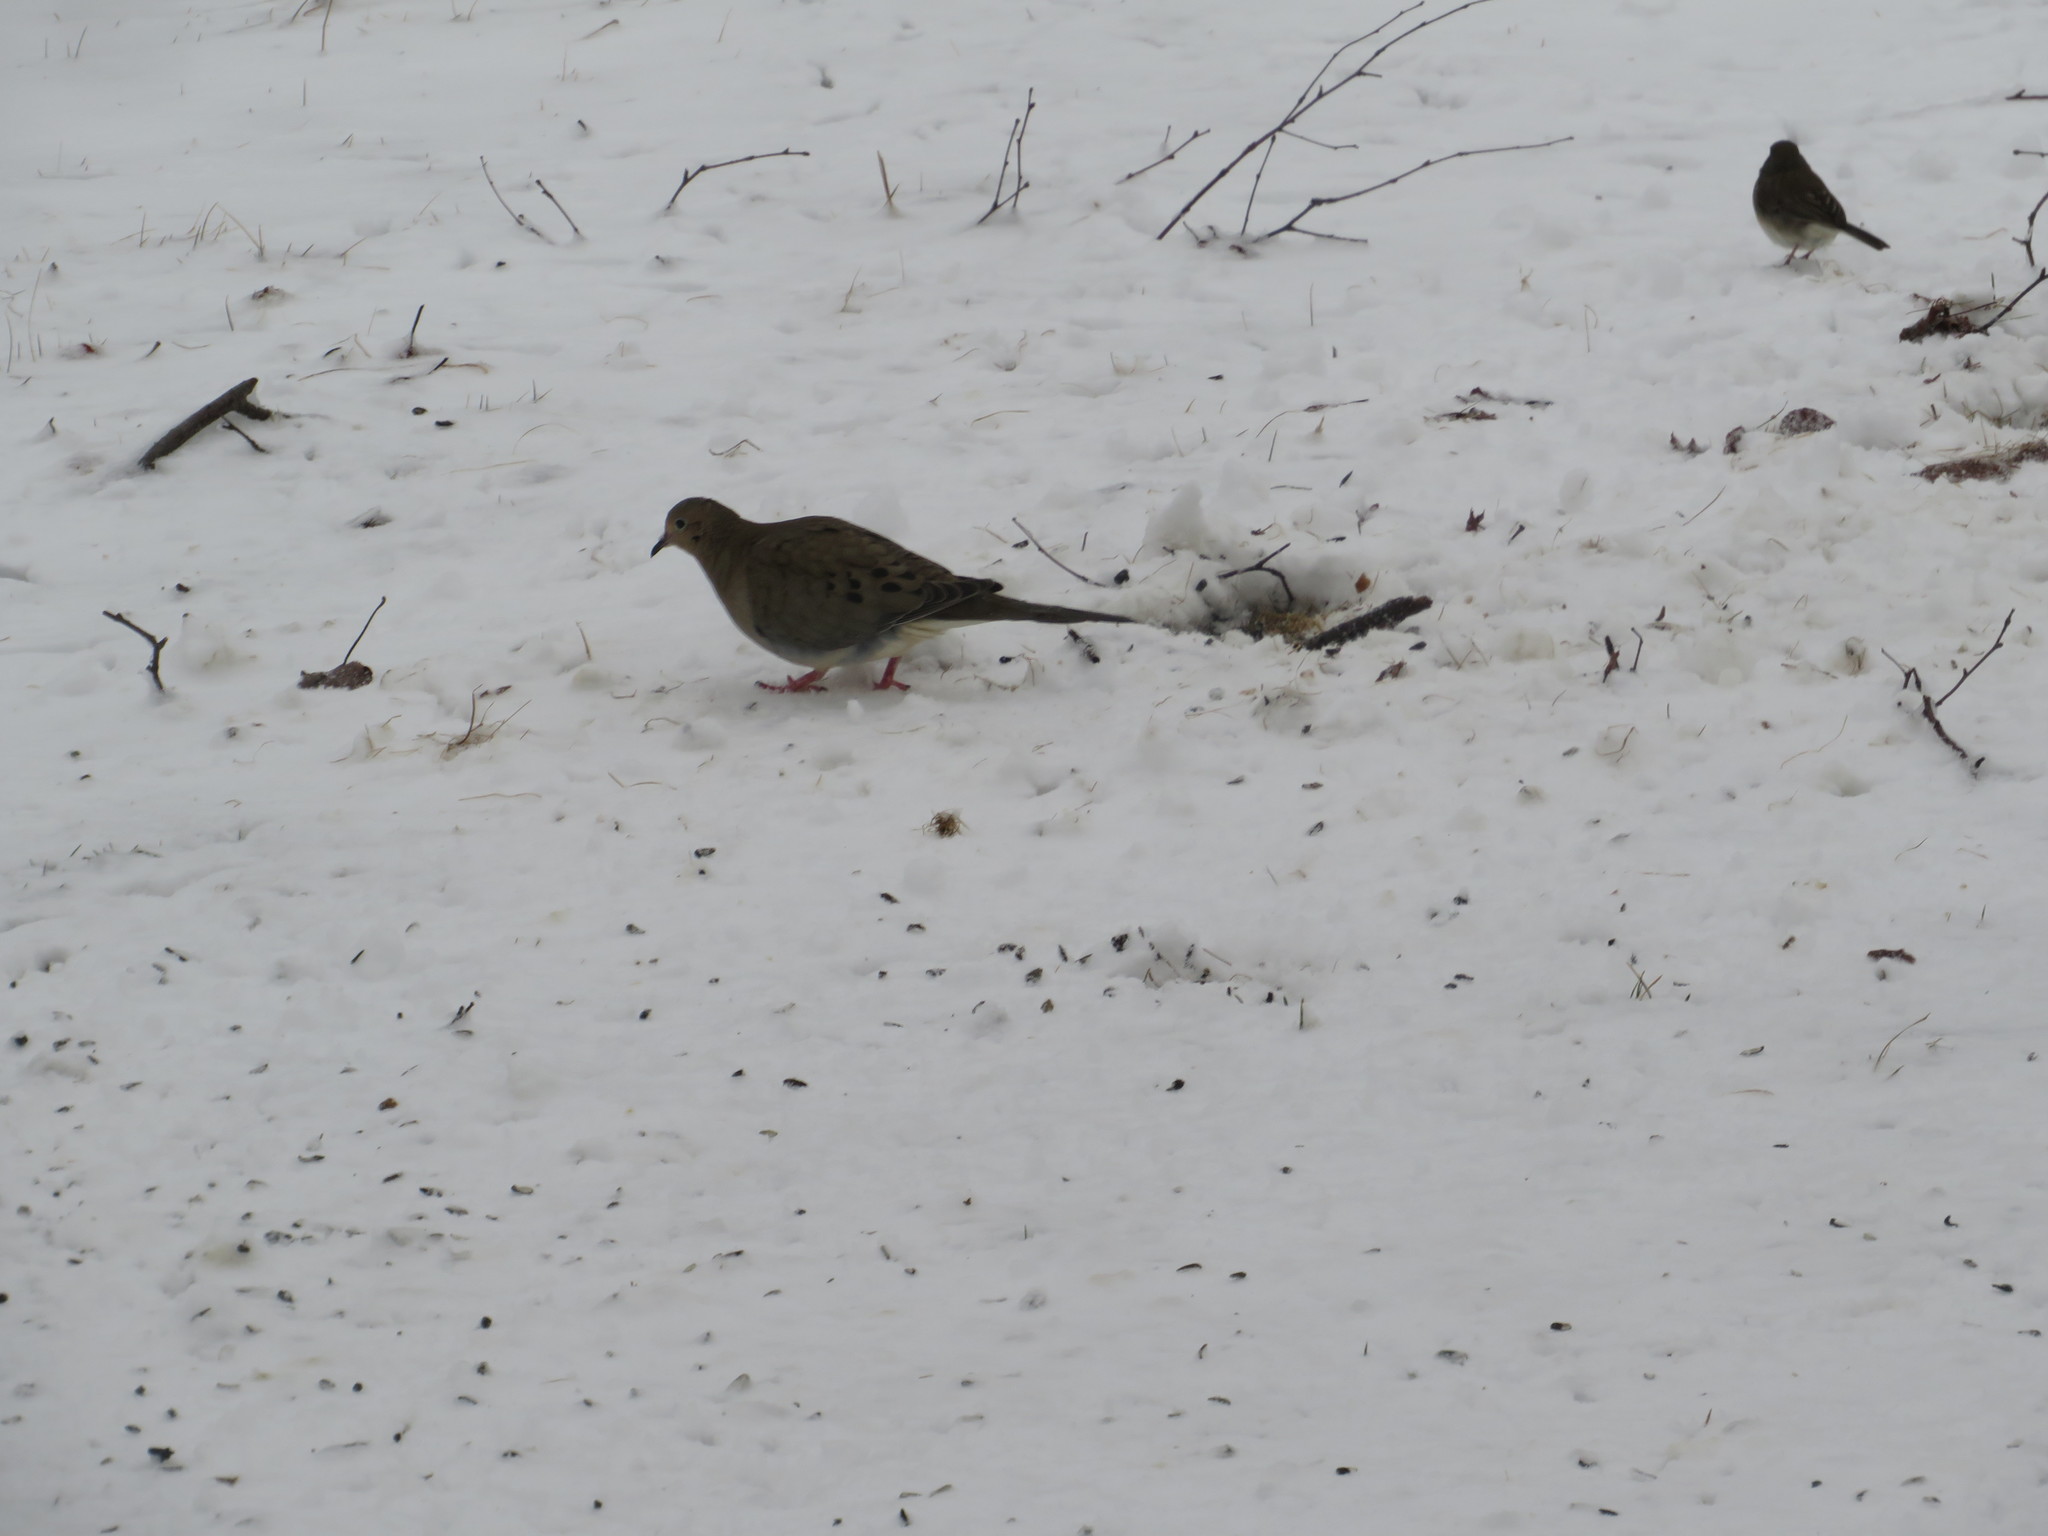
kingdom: Animalia
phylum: Chordata
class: Aves
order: Columbiformes
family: Columbidae
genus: Zenaida
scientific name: Zenaida macroura
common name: Mourning dove
